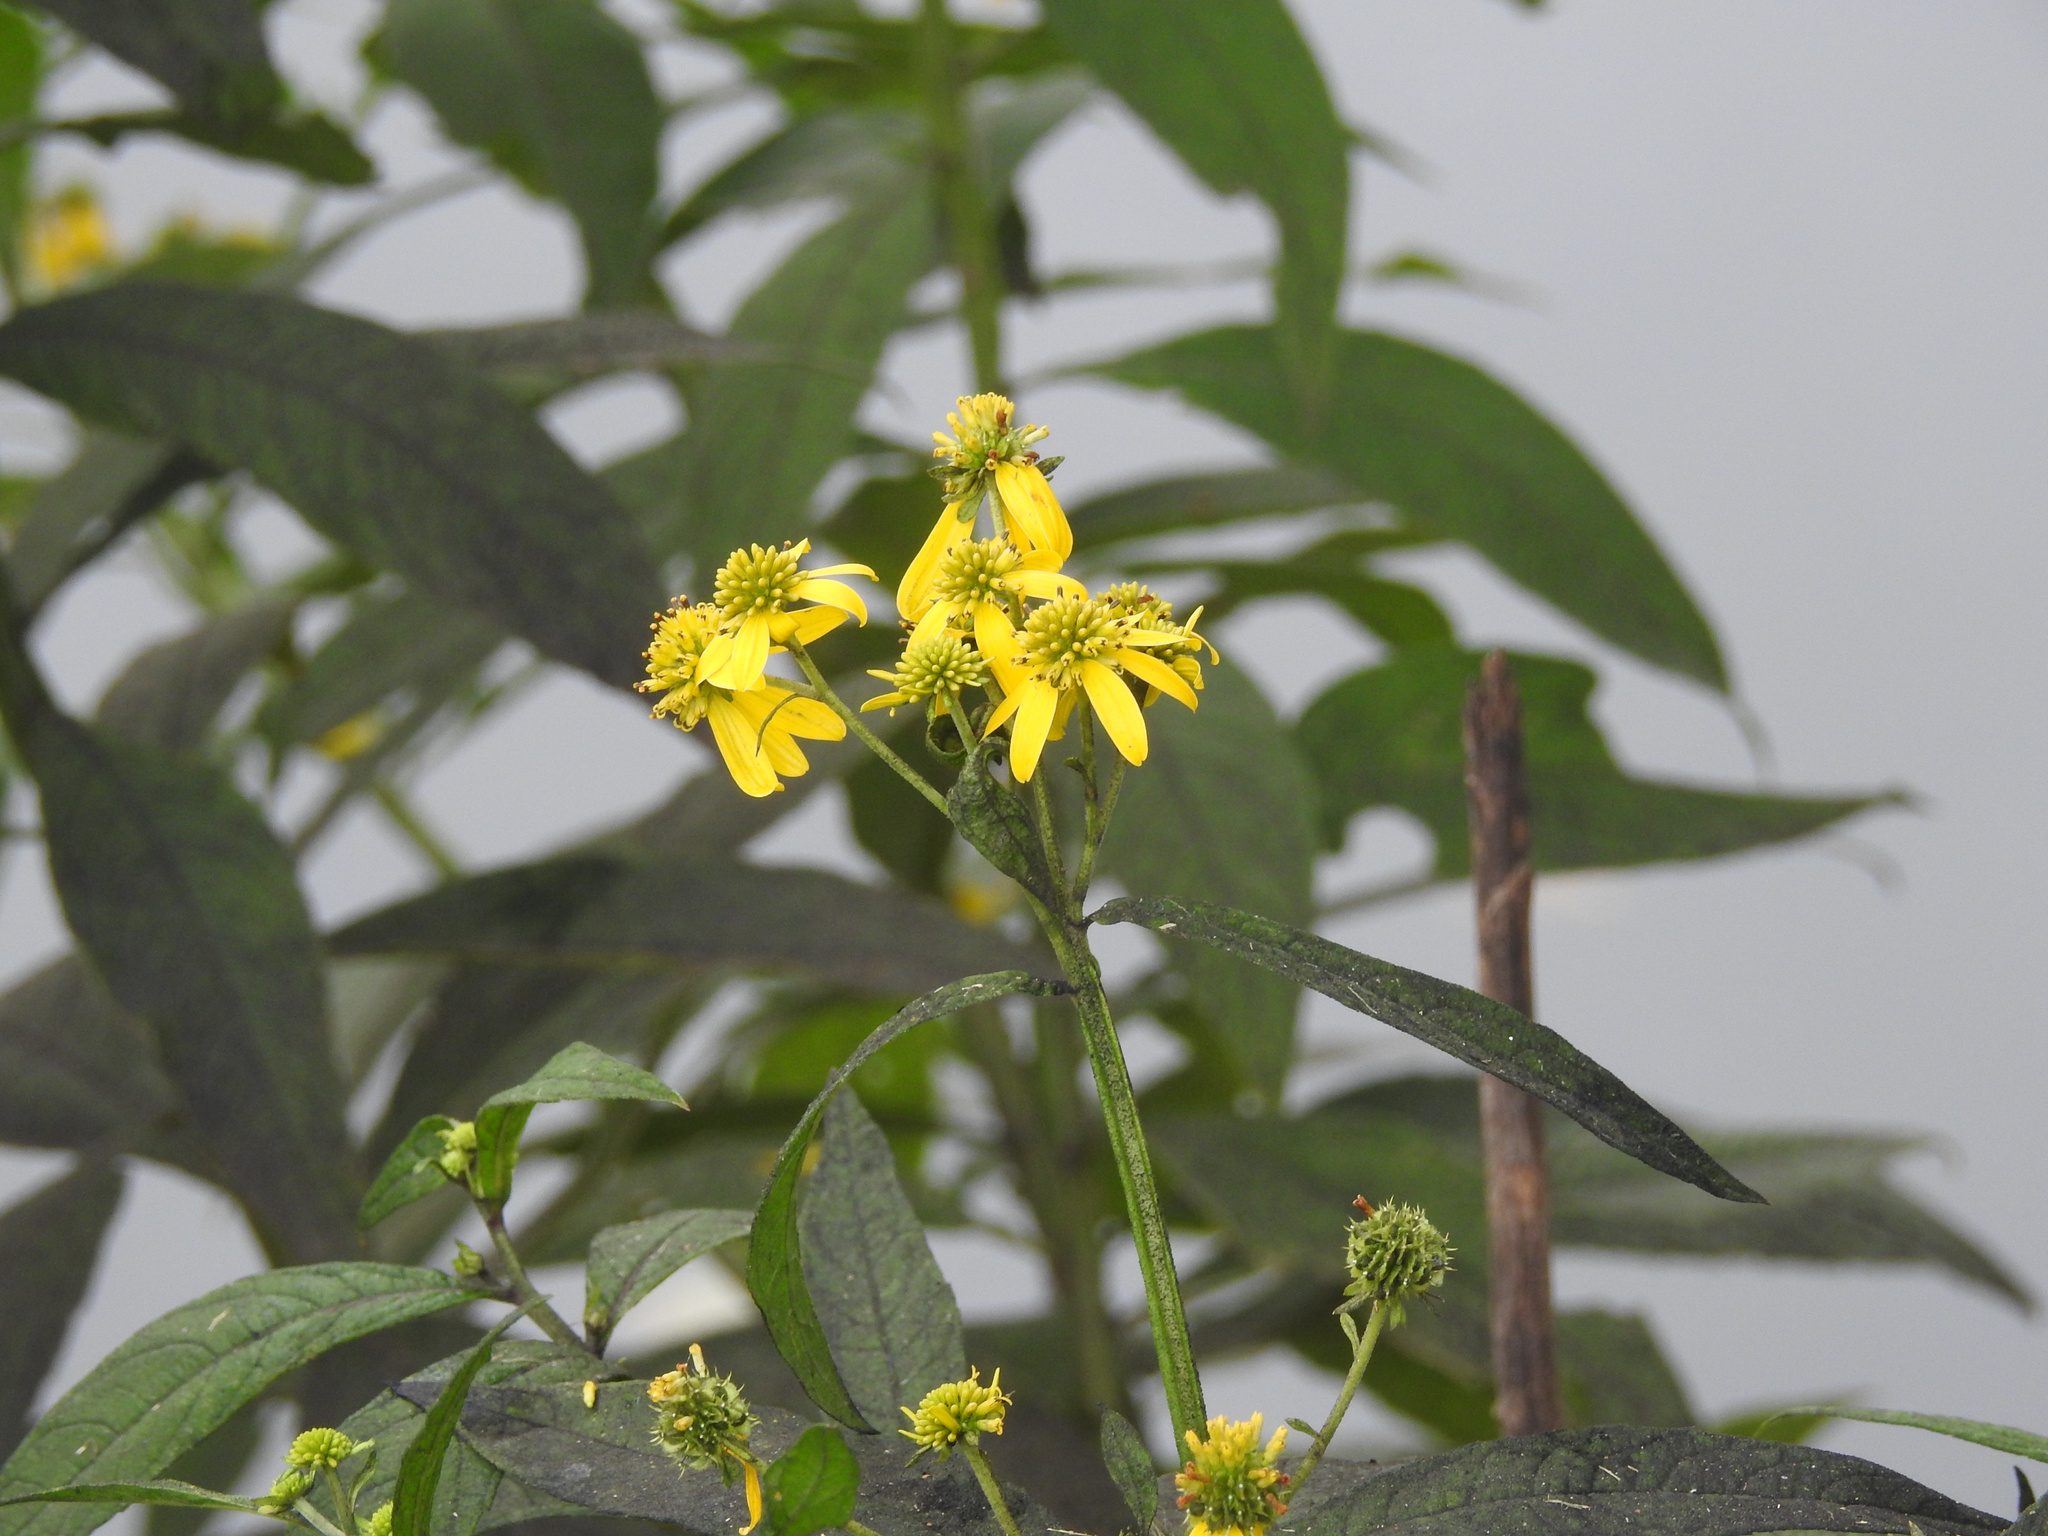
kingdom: Plantae
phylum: Tracheophyta
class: Magnoliopsida
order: Asterales
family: Asteraceae
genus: Verbesina
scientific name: Verbesina alternifolia
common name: Wingstem
